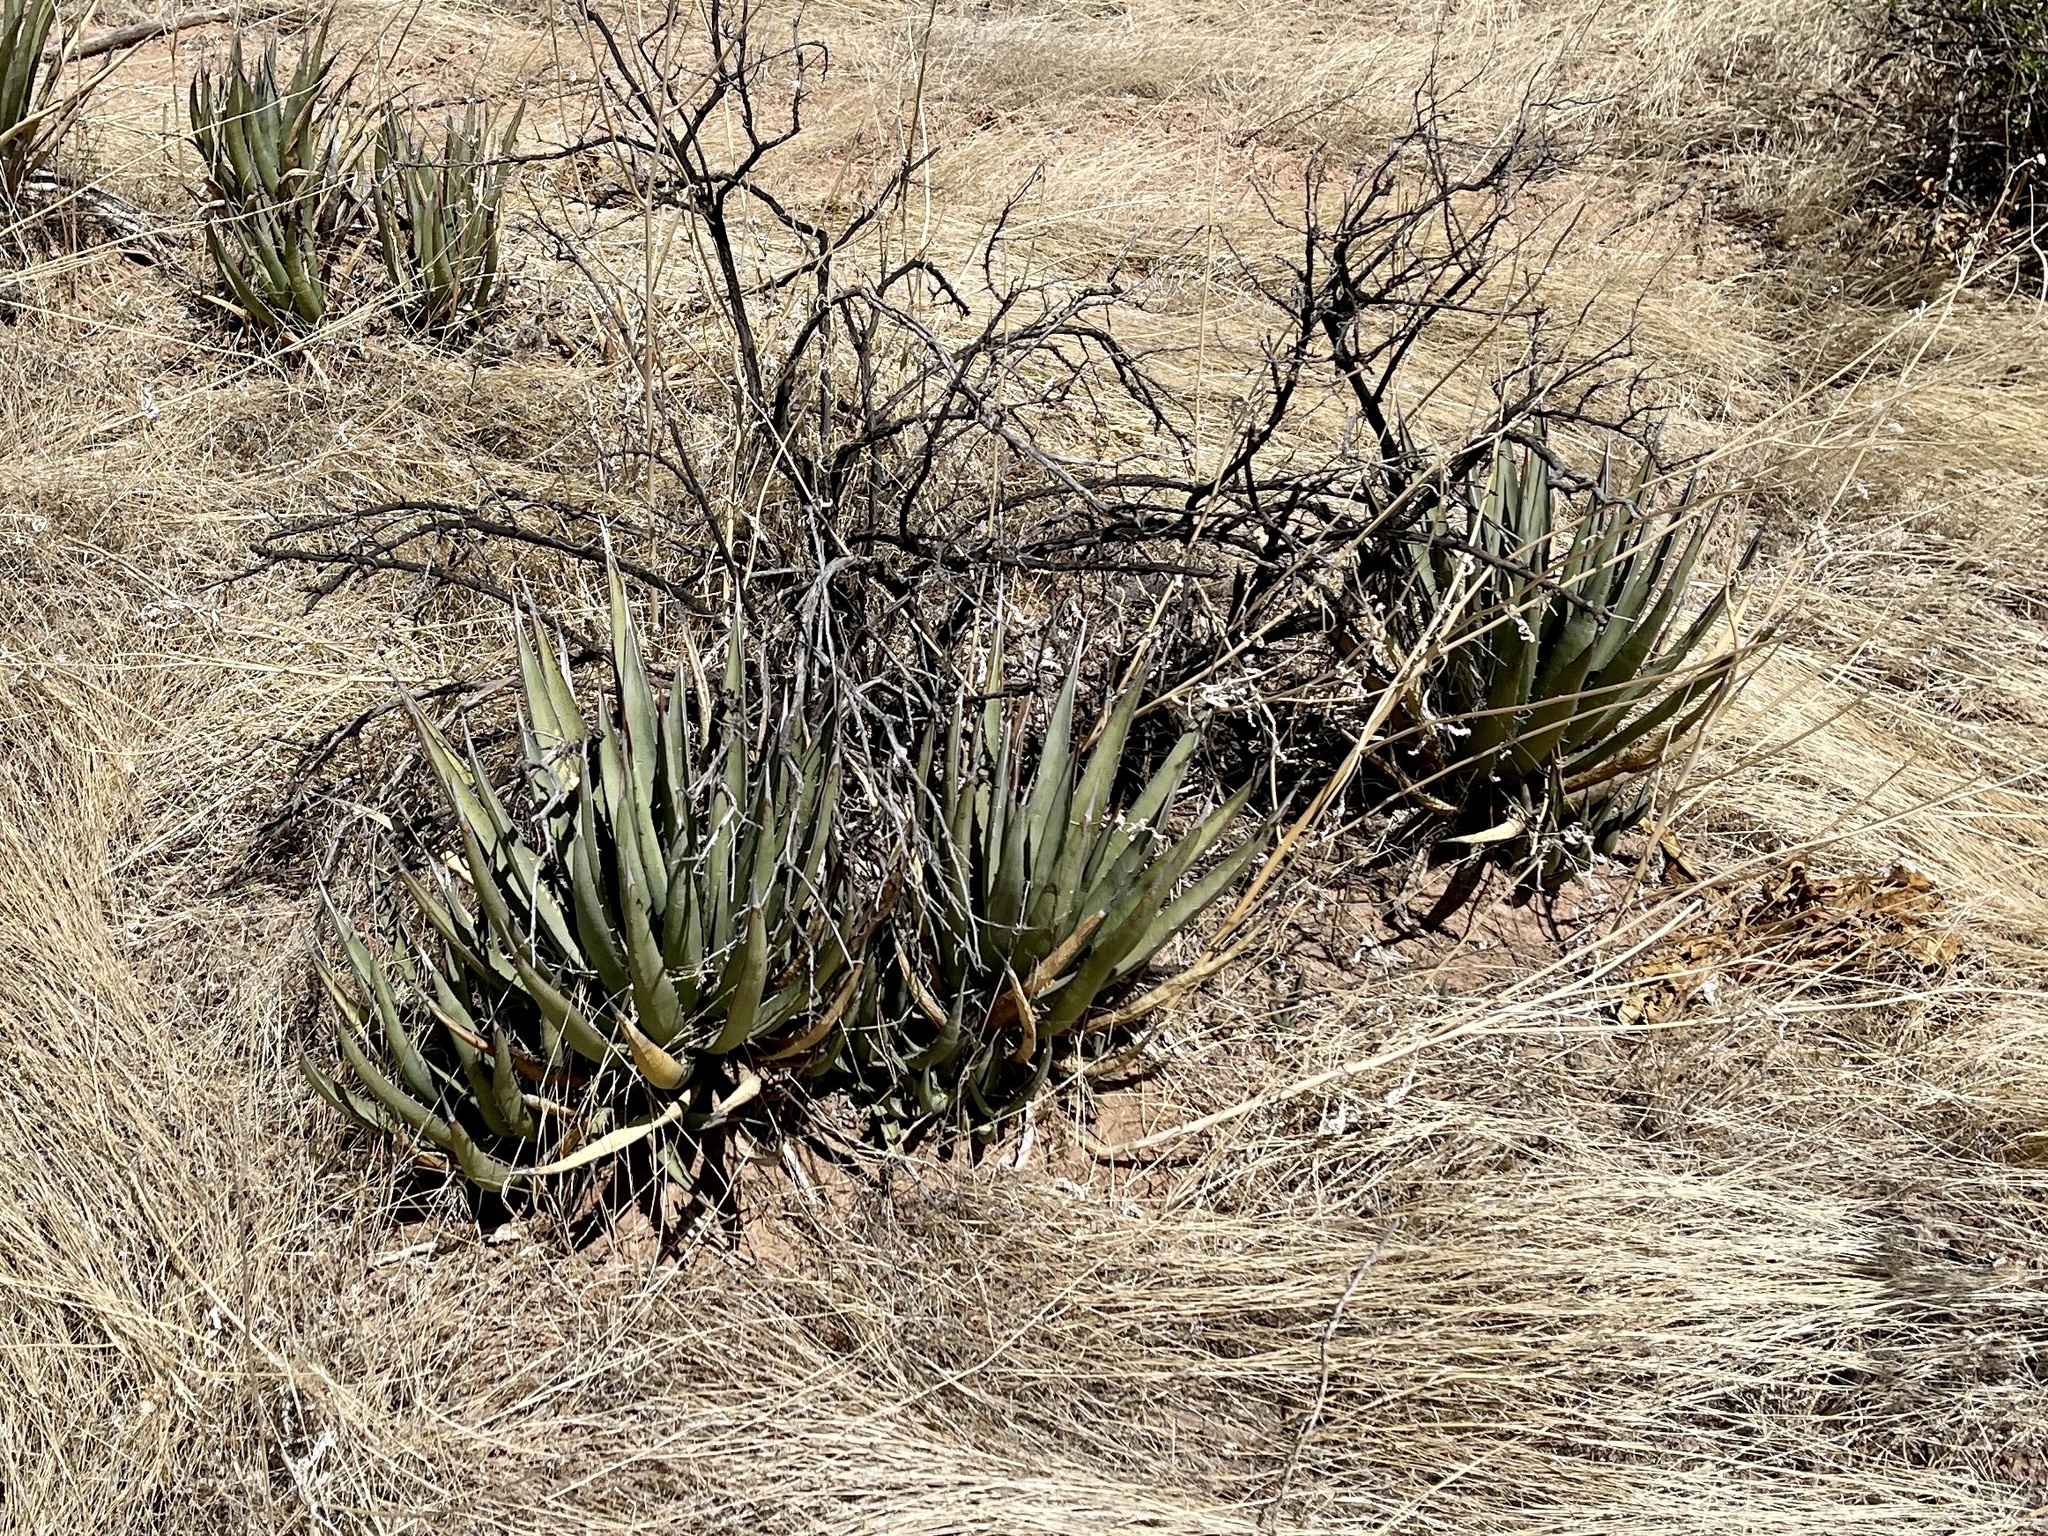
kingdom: Plantae
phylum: Tracheophyta
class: Liliopsida
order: Asparagales
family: Asparagaceae
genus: Agave
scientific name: Agave lechuguilla
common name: Lecheguilla agave
